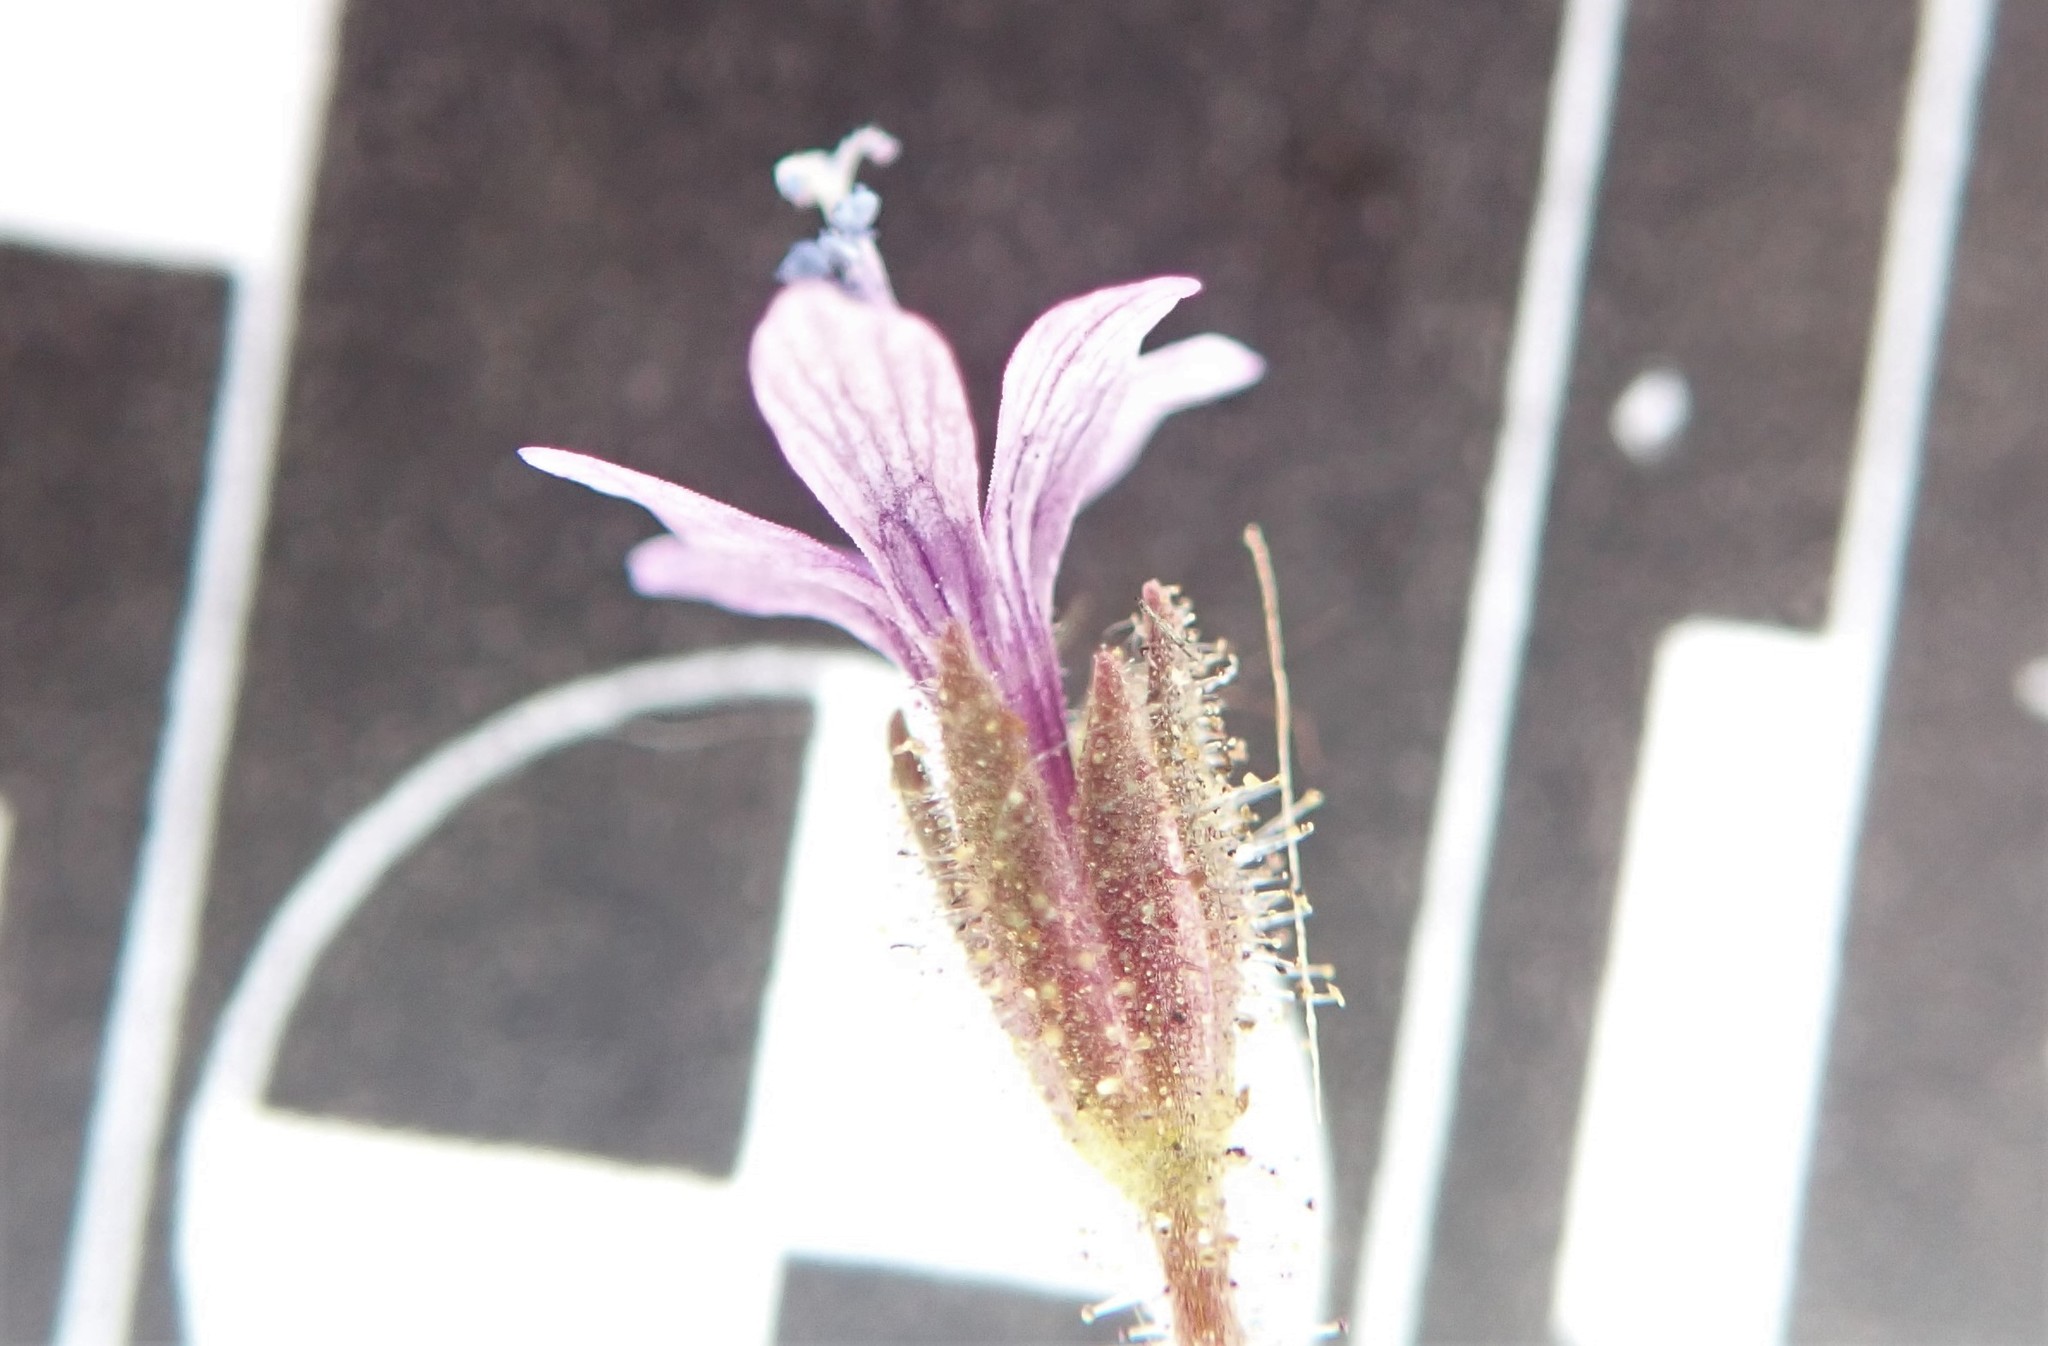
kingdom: Plantae
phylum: Tracheophyta
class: Magnoliopsida
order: Ericales
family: Polemoniaceae
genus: Allophyllum
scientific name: Allophyllum gilioides
